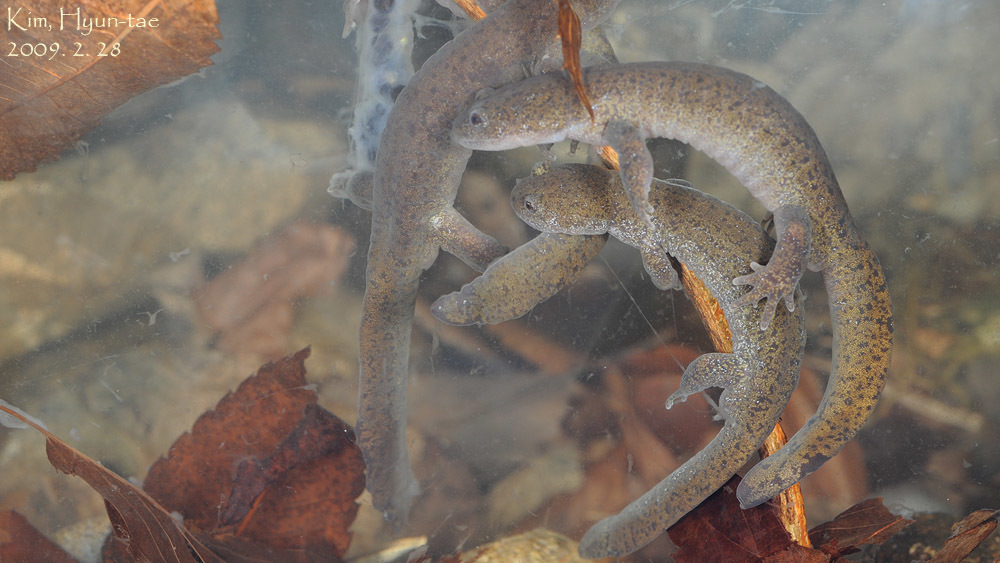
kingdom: Animalia
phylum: Chordata
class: Amphibia
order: Caudata
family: Hynobiidae
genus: Hynobius
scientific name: Hynobius leechii
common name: Gensan salamander
